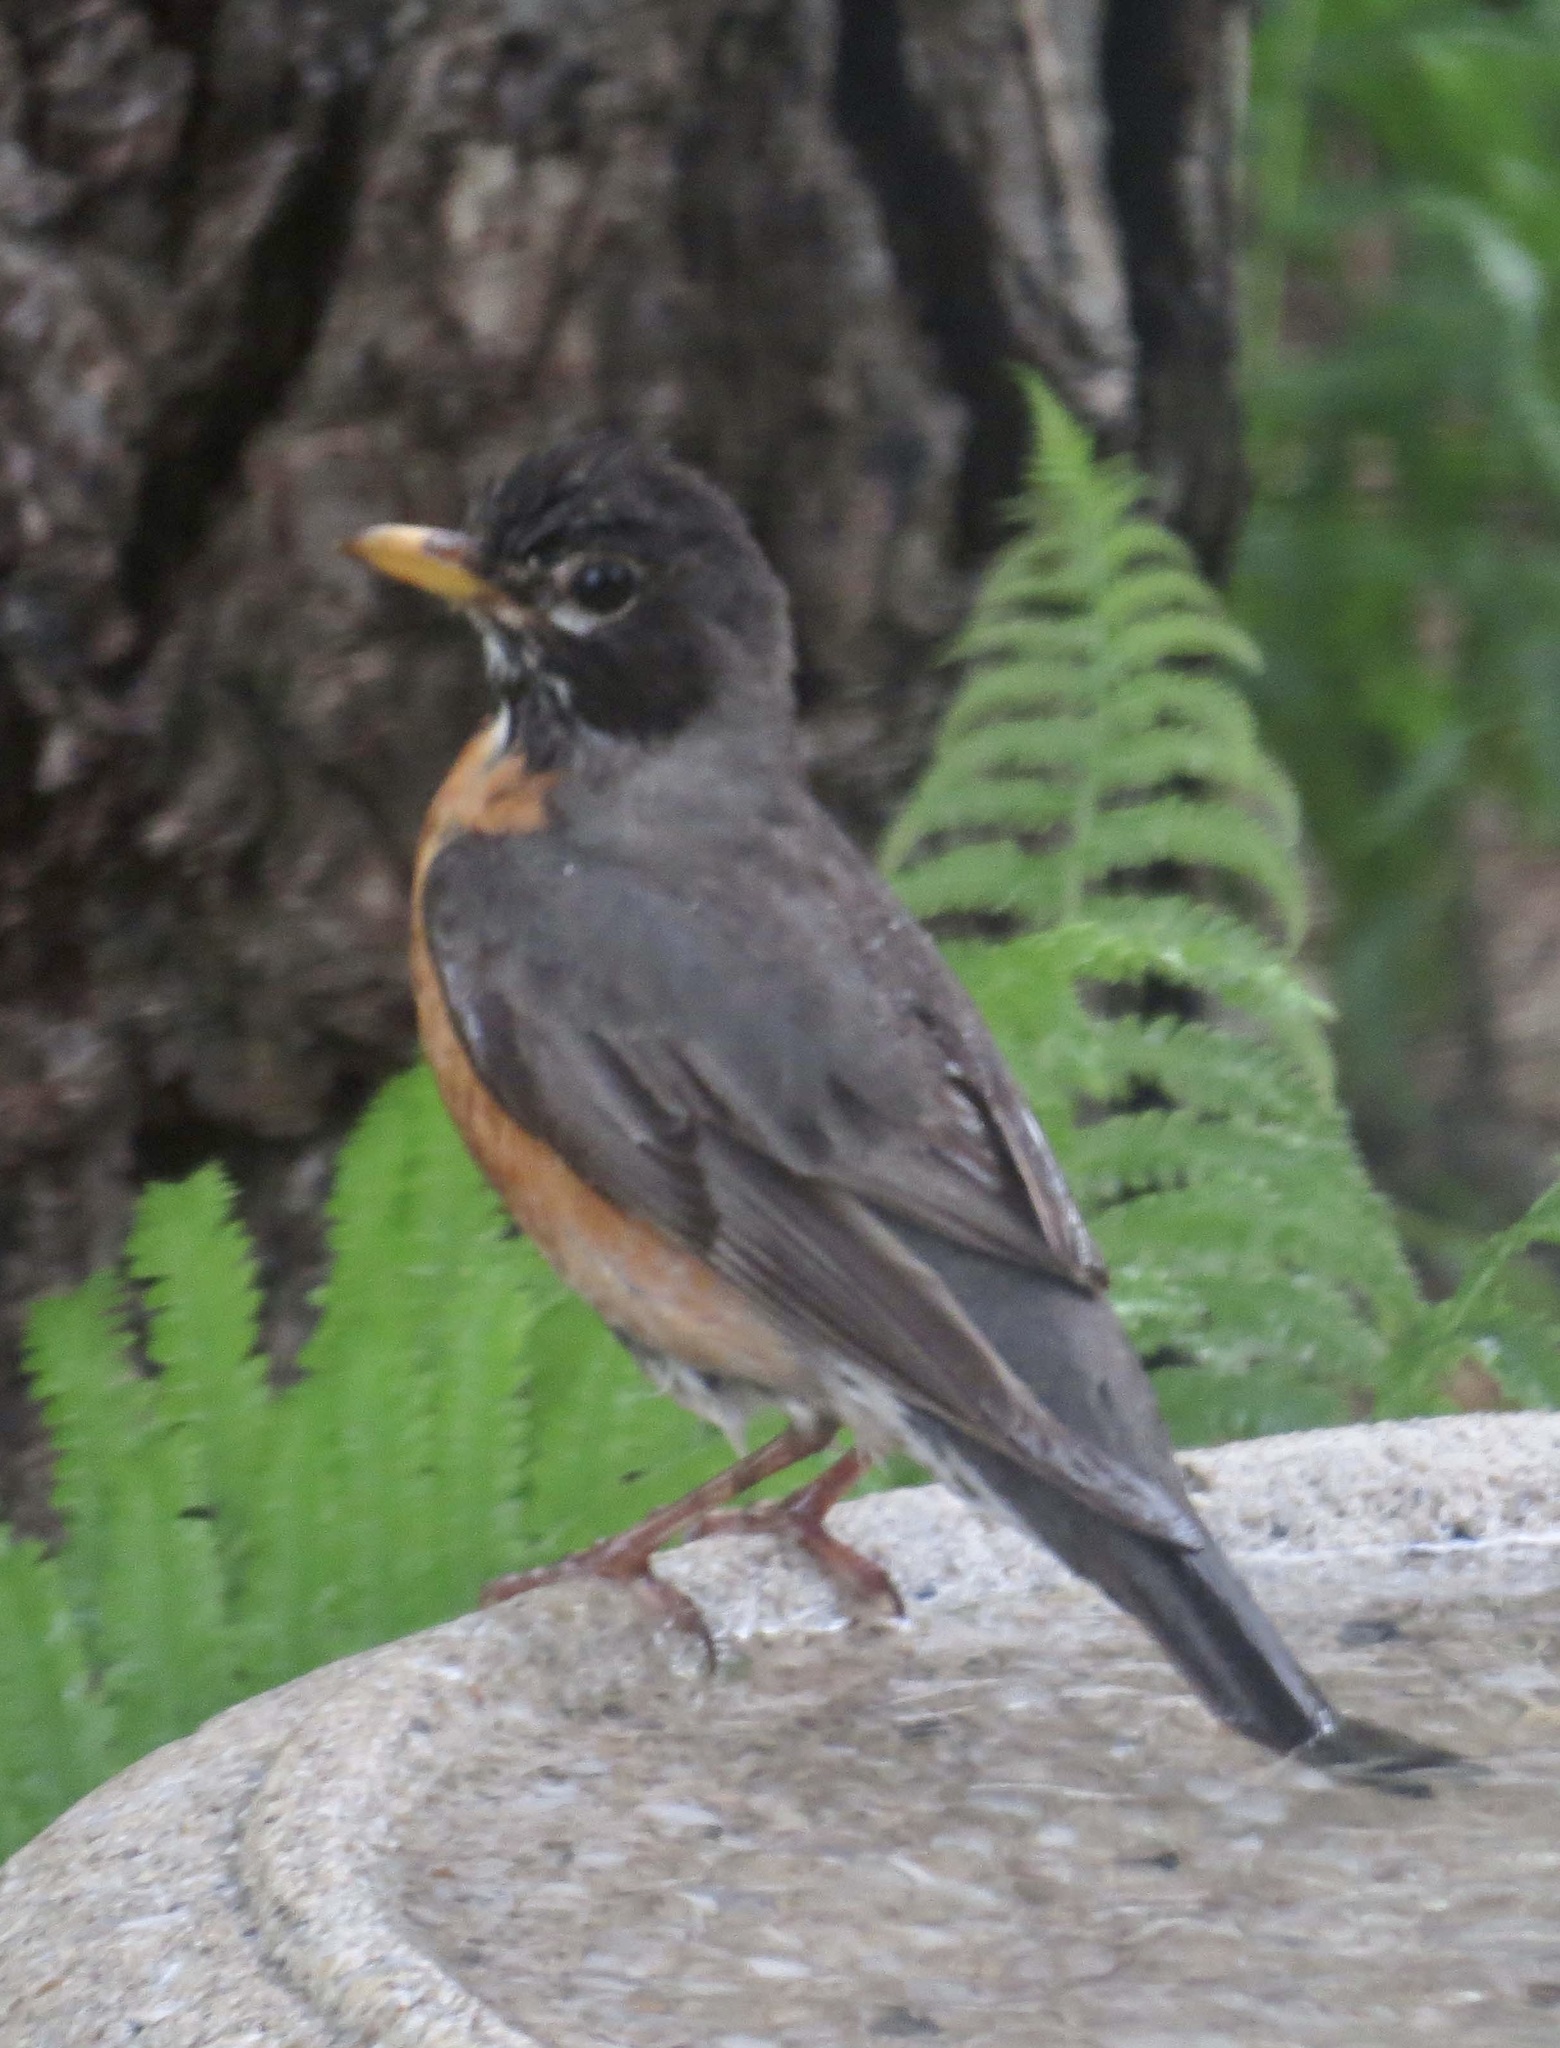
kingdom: Animalia
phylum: Chordata
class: Aves
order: Passeriformes
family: Turdidae
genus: Turdus
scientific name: Turdus migratorius
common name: American robin
